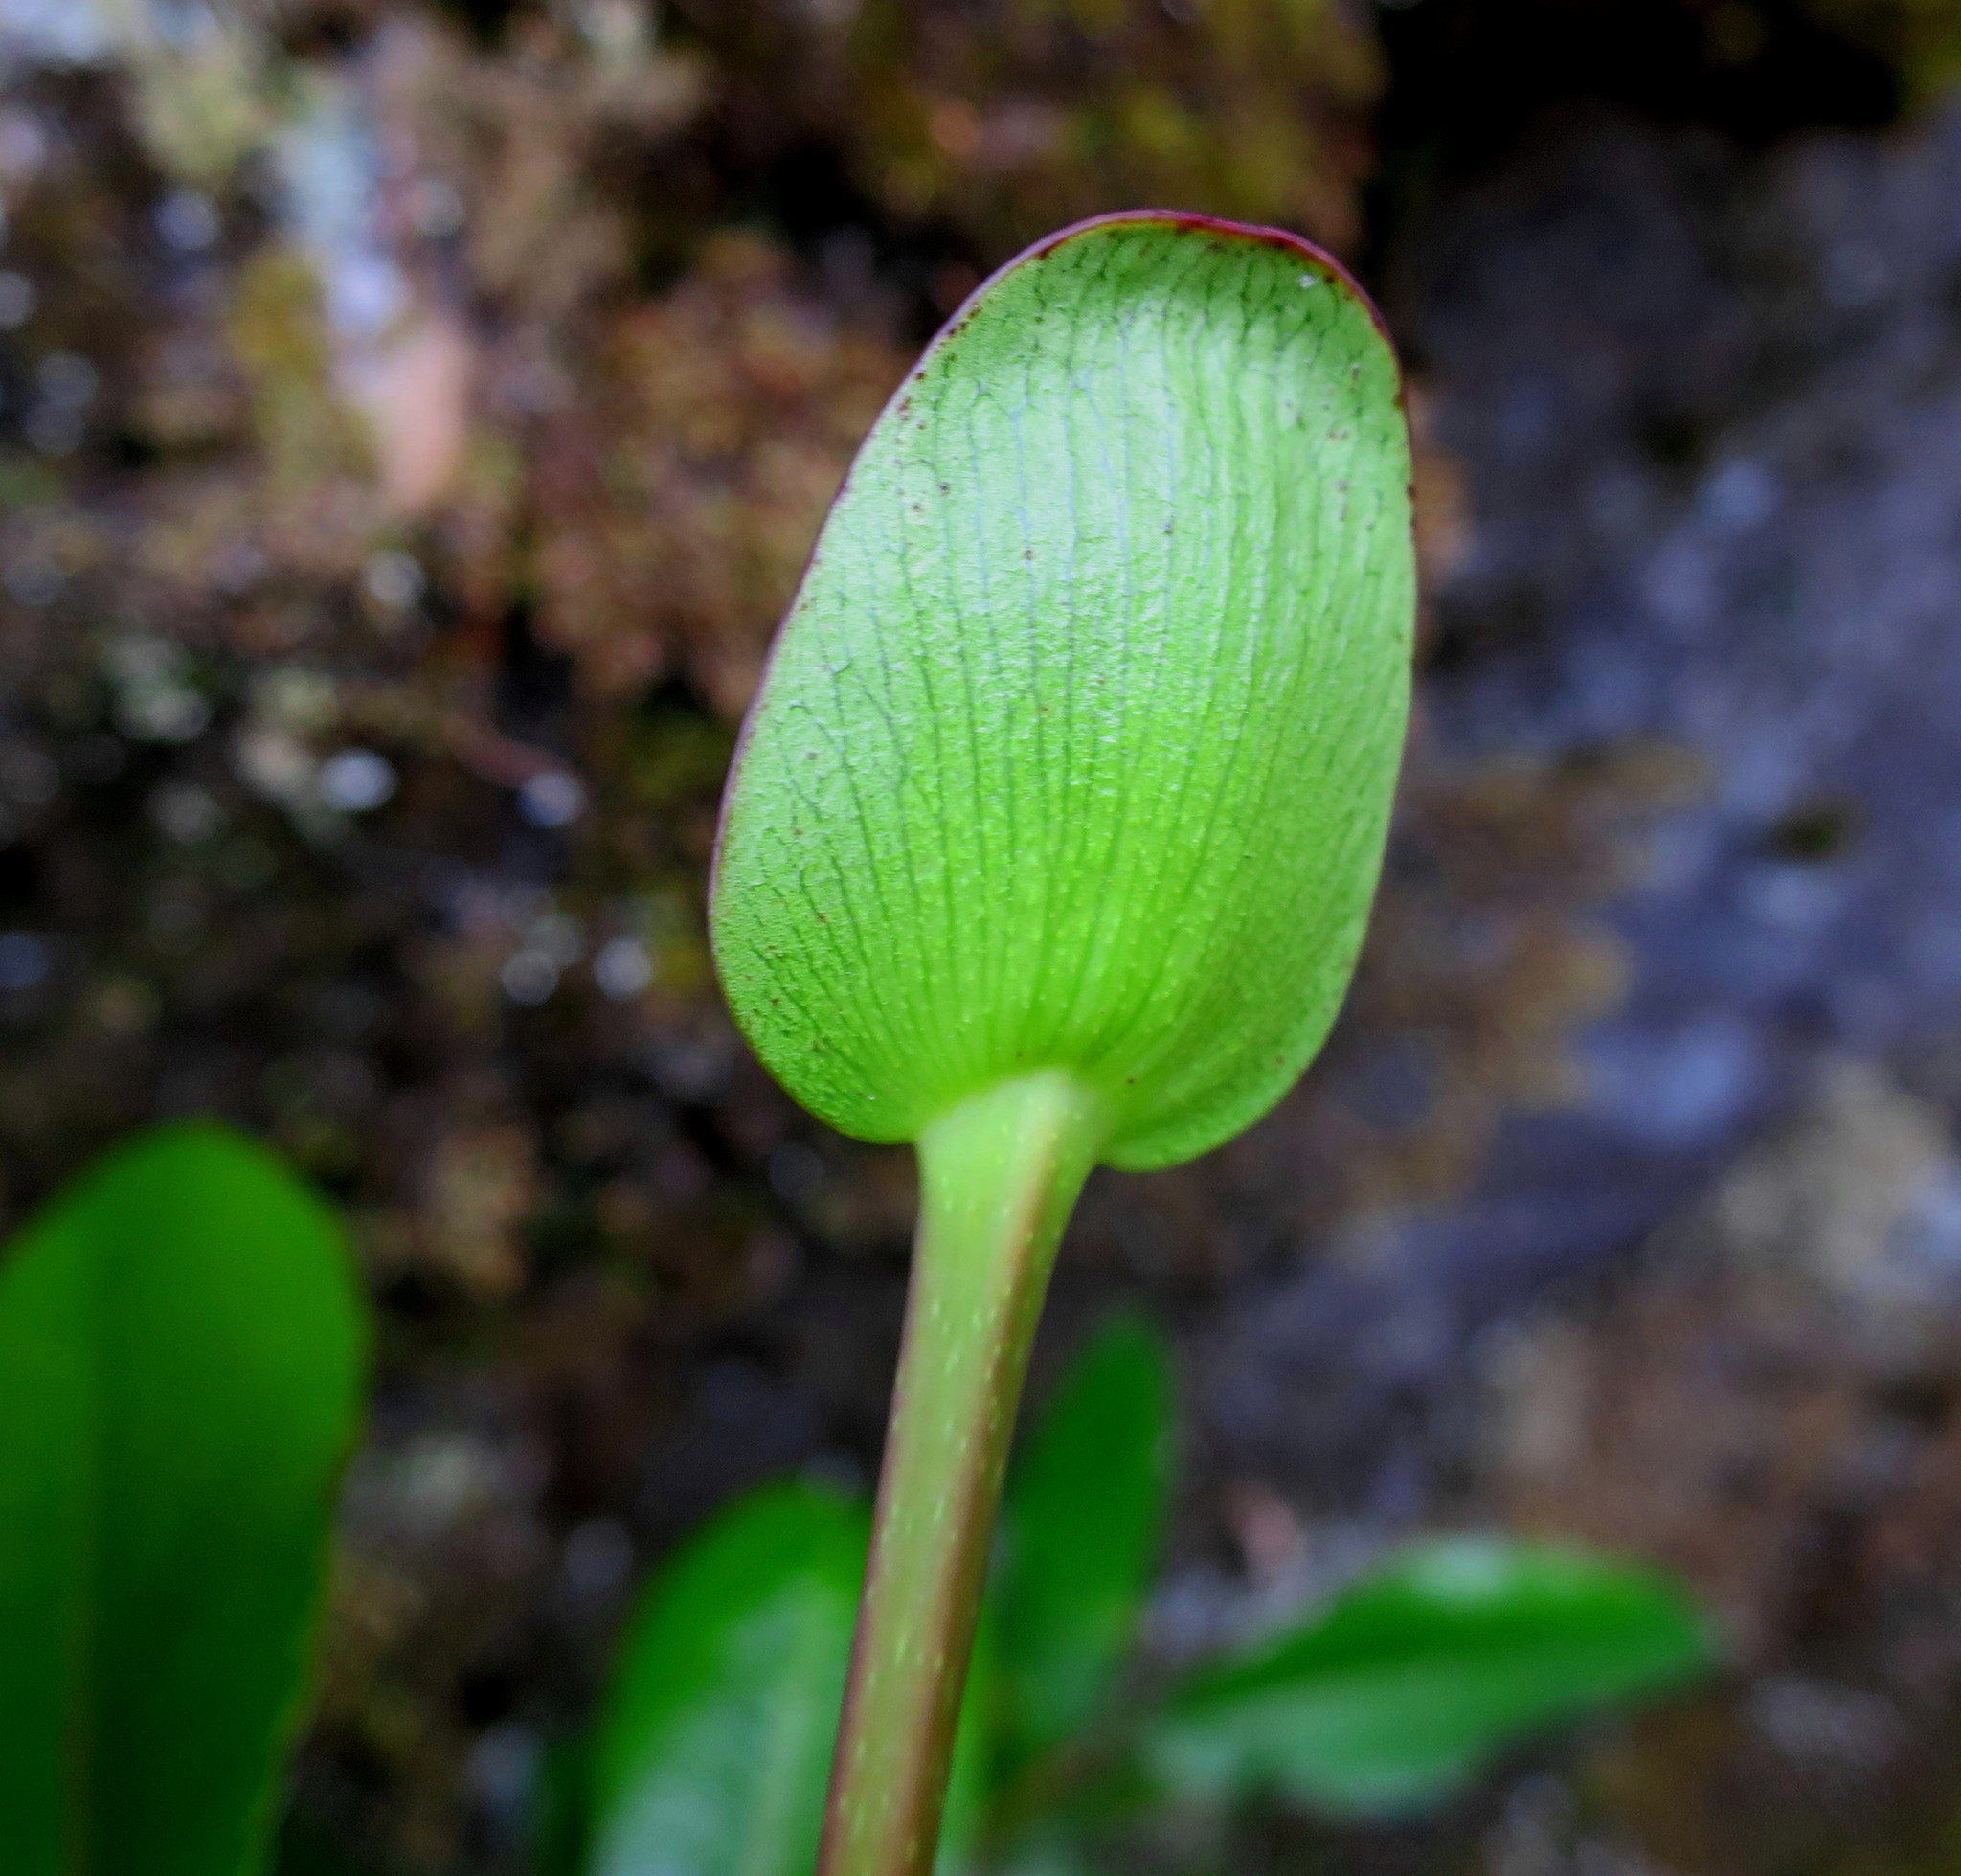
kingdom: Plantae
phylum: Tracheophyta
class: Magnoliopsida
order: Oxalidales
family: Cunoniaceae
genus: Cunonia
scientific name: Cunonia capensis
